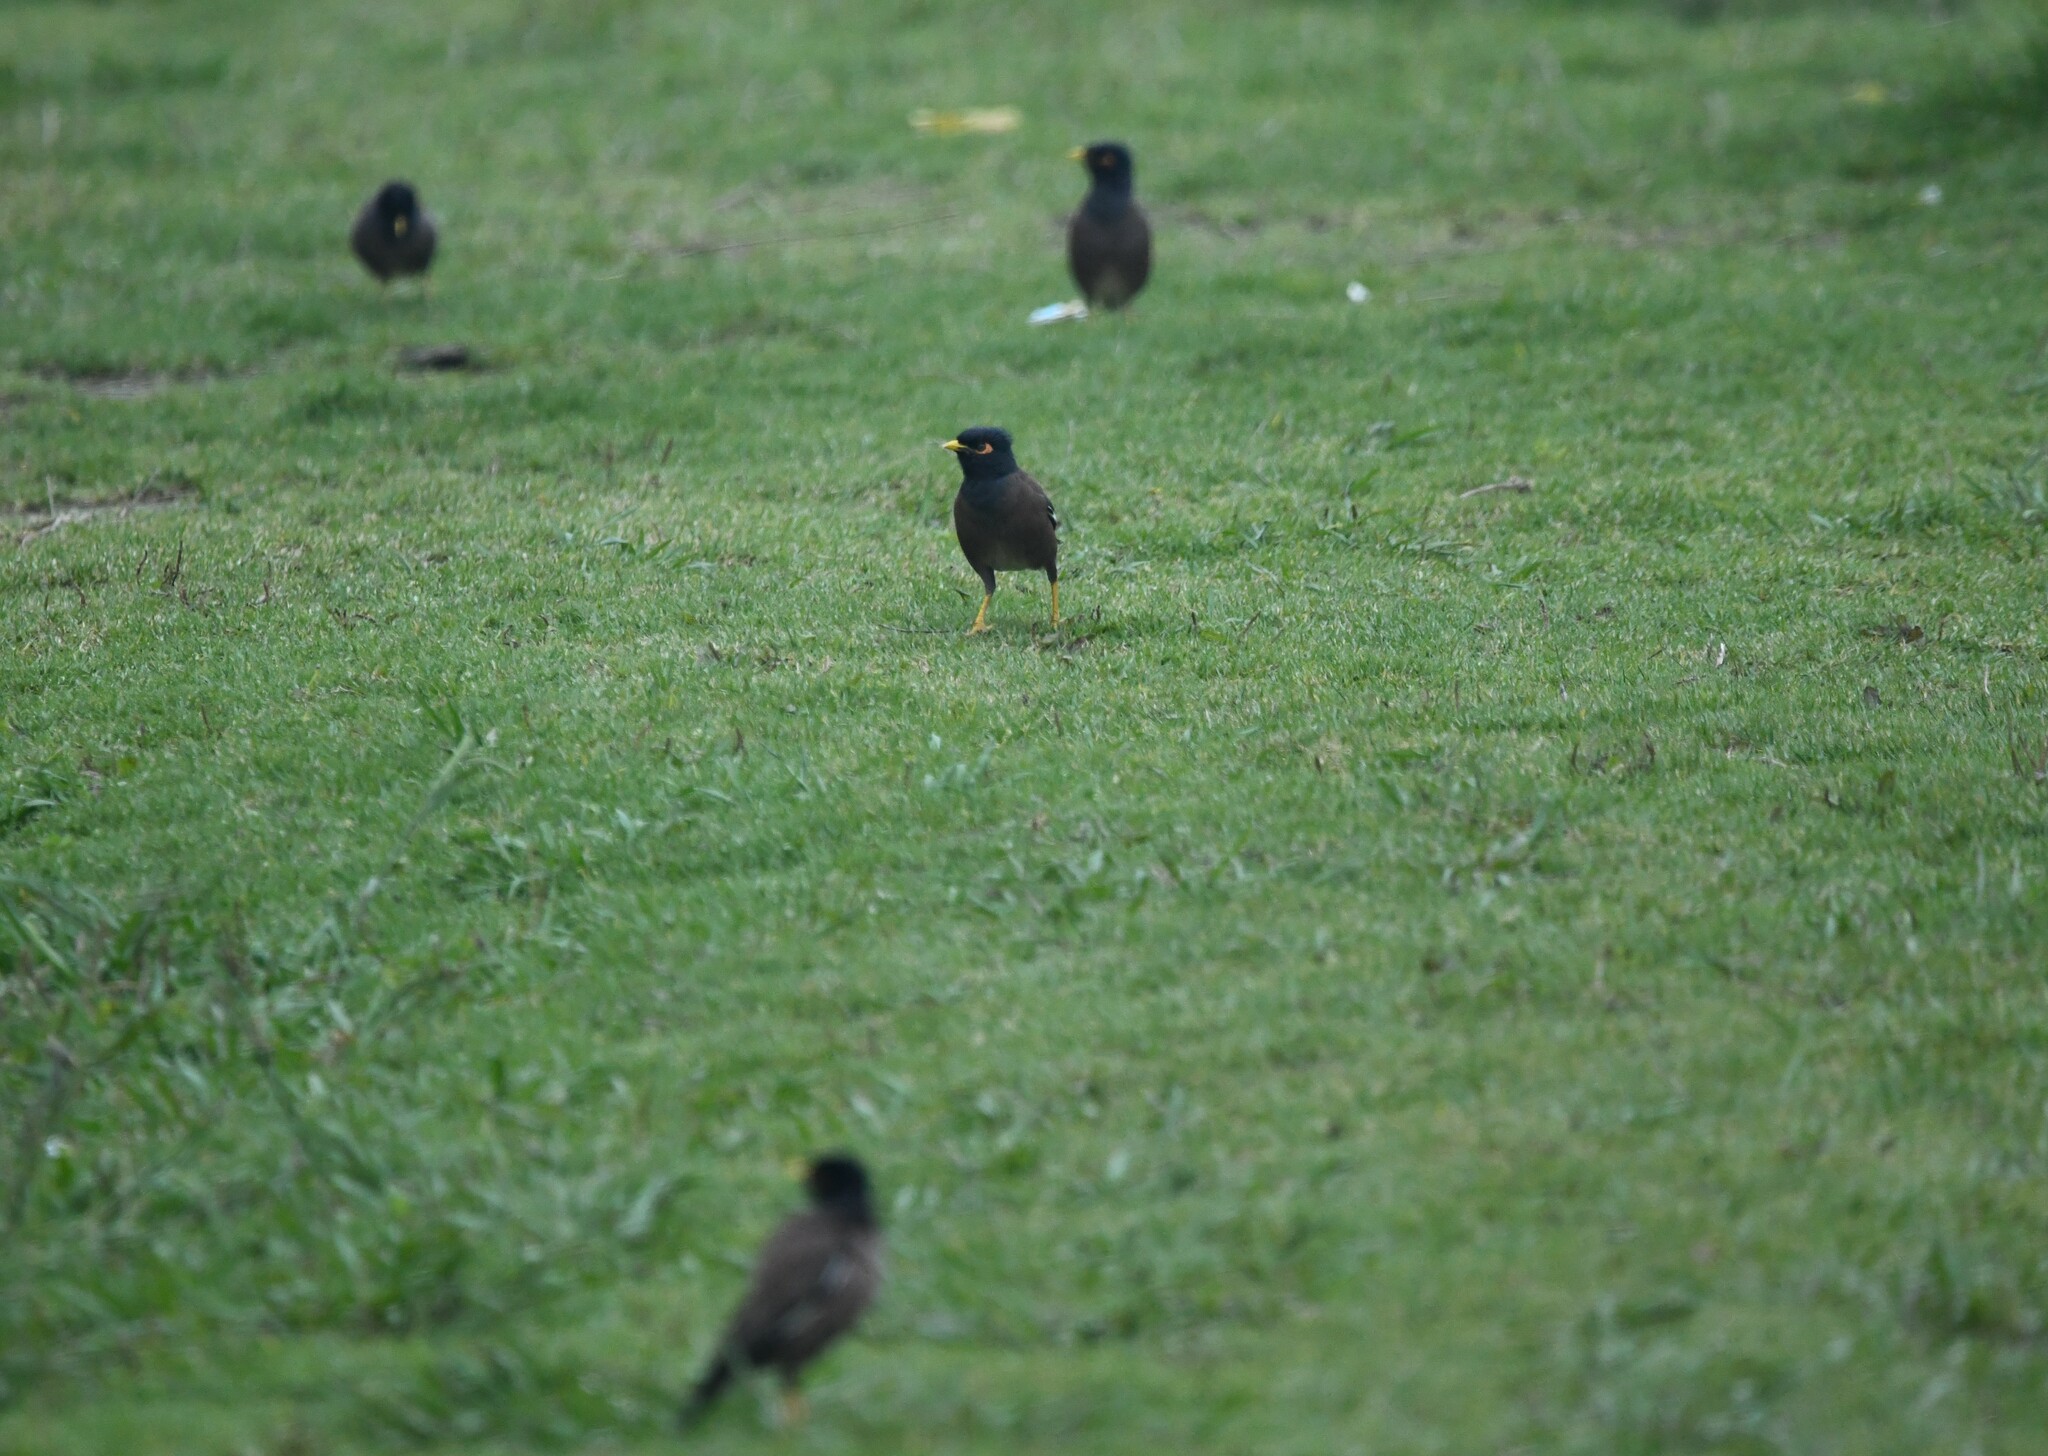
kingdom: Animalia
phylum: Chordata
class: Aves
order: Passeriformes
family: Sturnidae
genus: Acridotheres
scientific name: Acridotheres tristis
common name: Common myna
